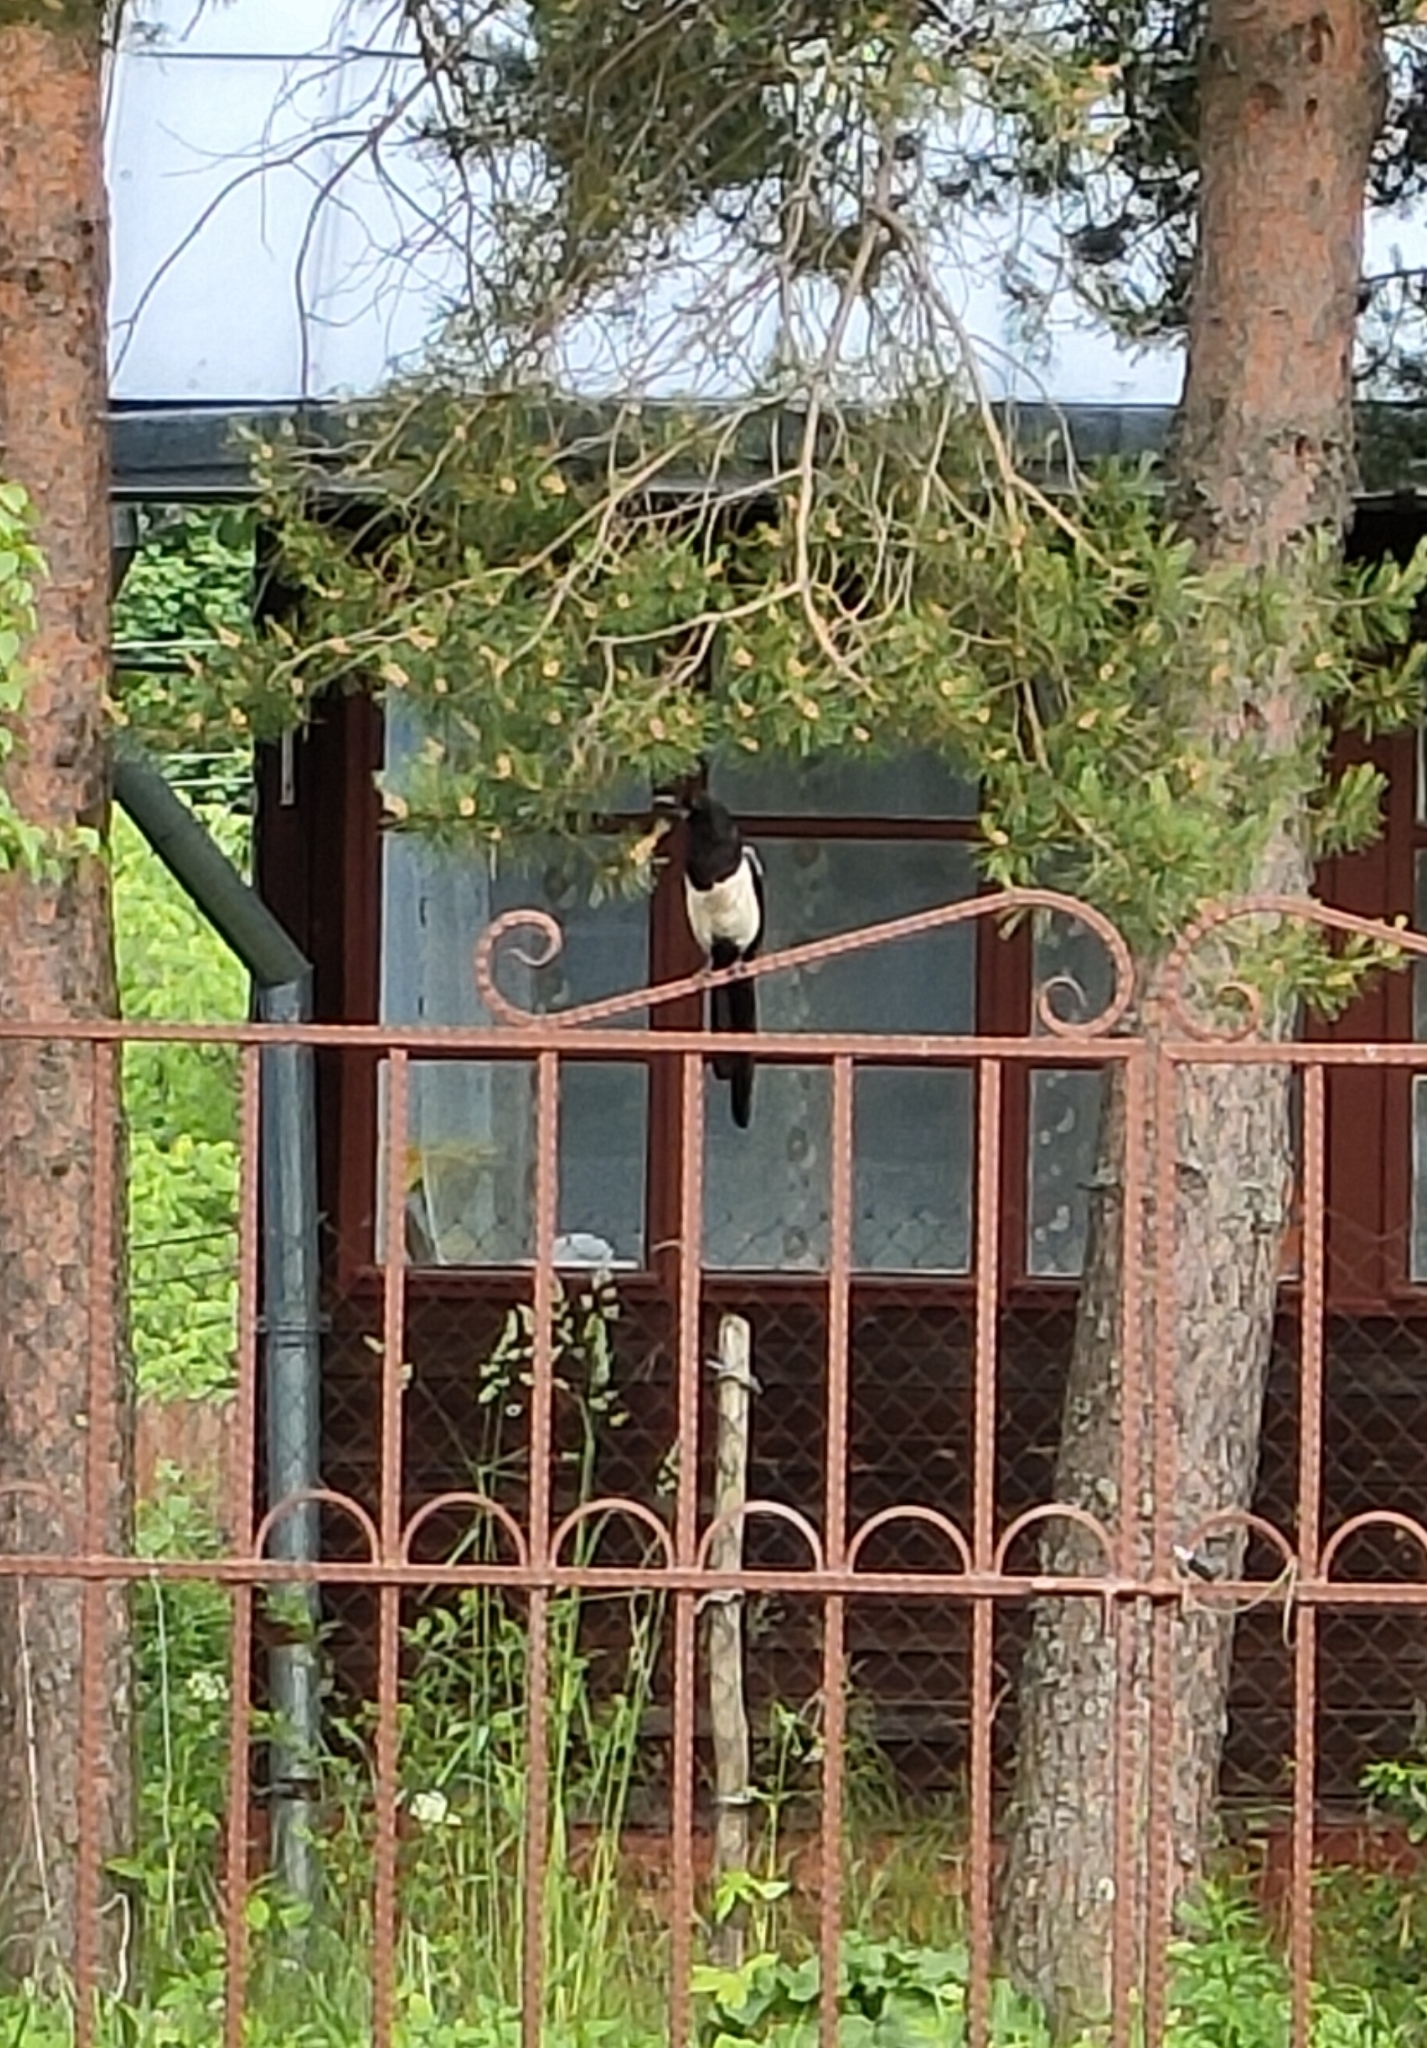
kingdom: Animalia
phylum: Chordata
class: Aves
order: Passeriformes
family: Corvidae
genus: Pica
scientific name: Pica pica
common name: Eurasian magpie
